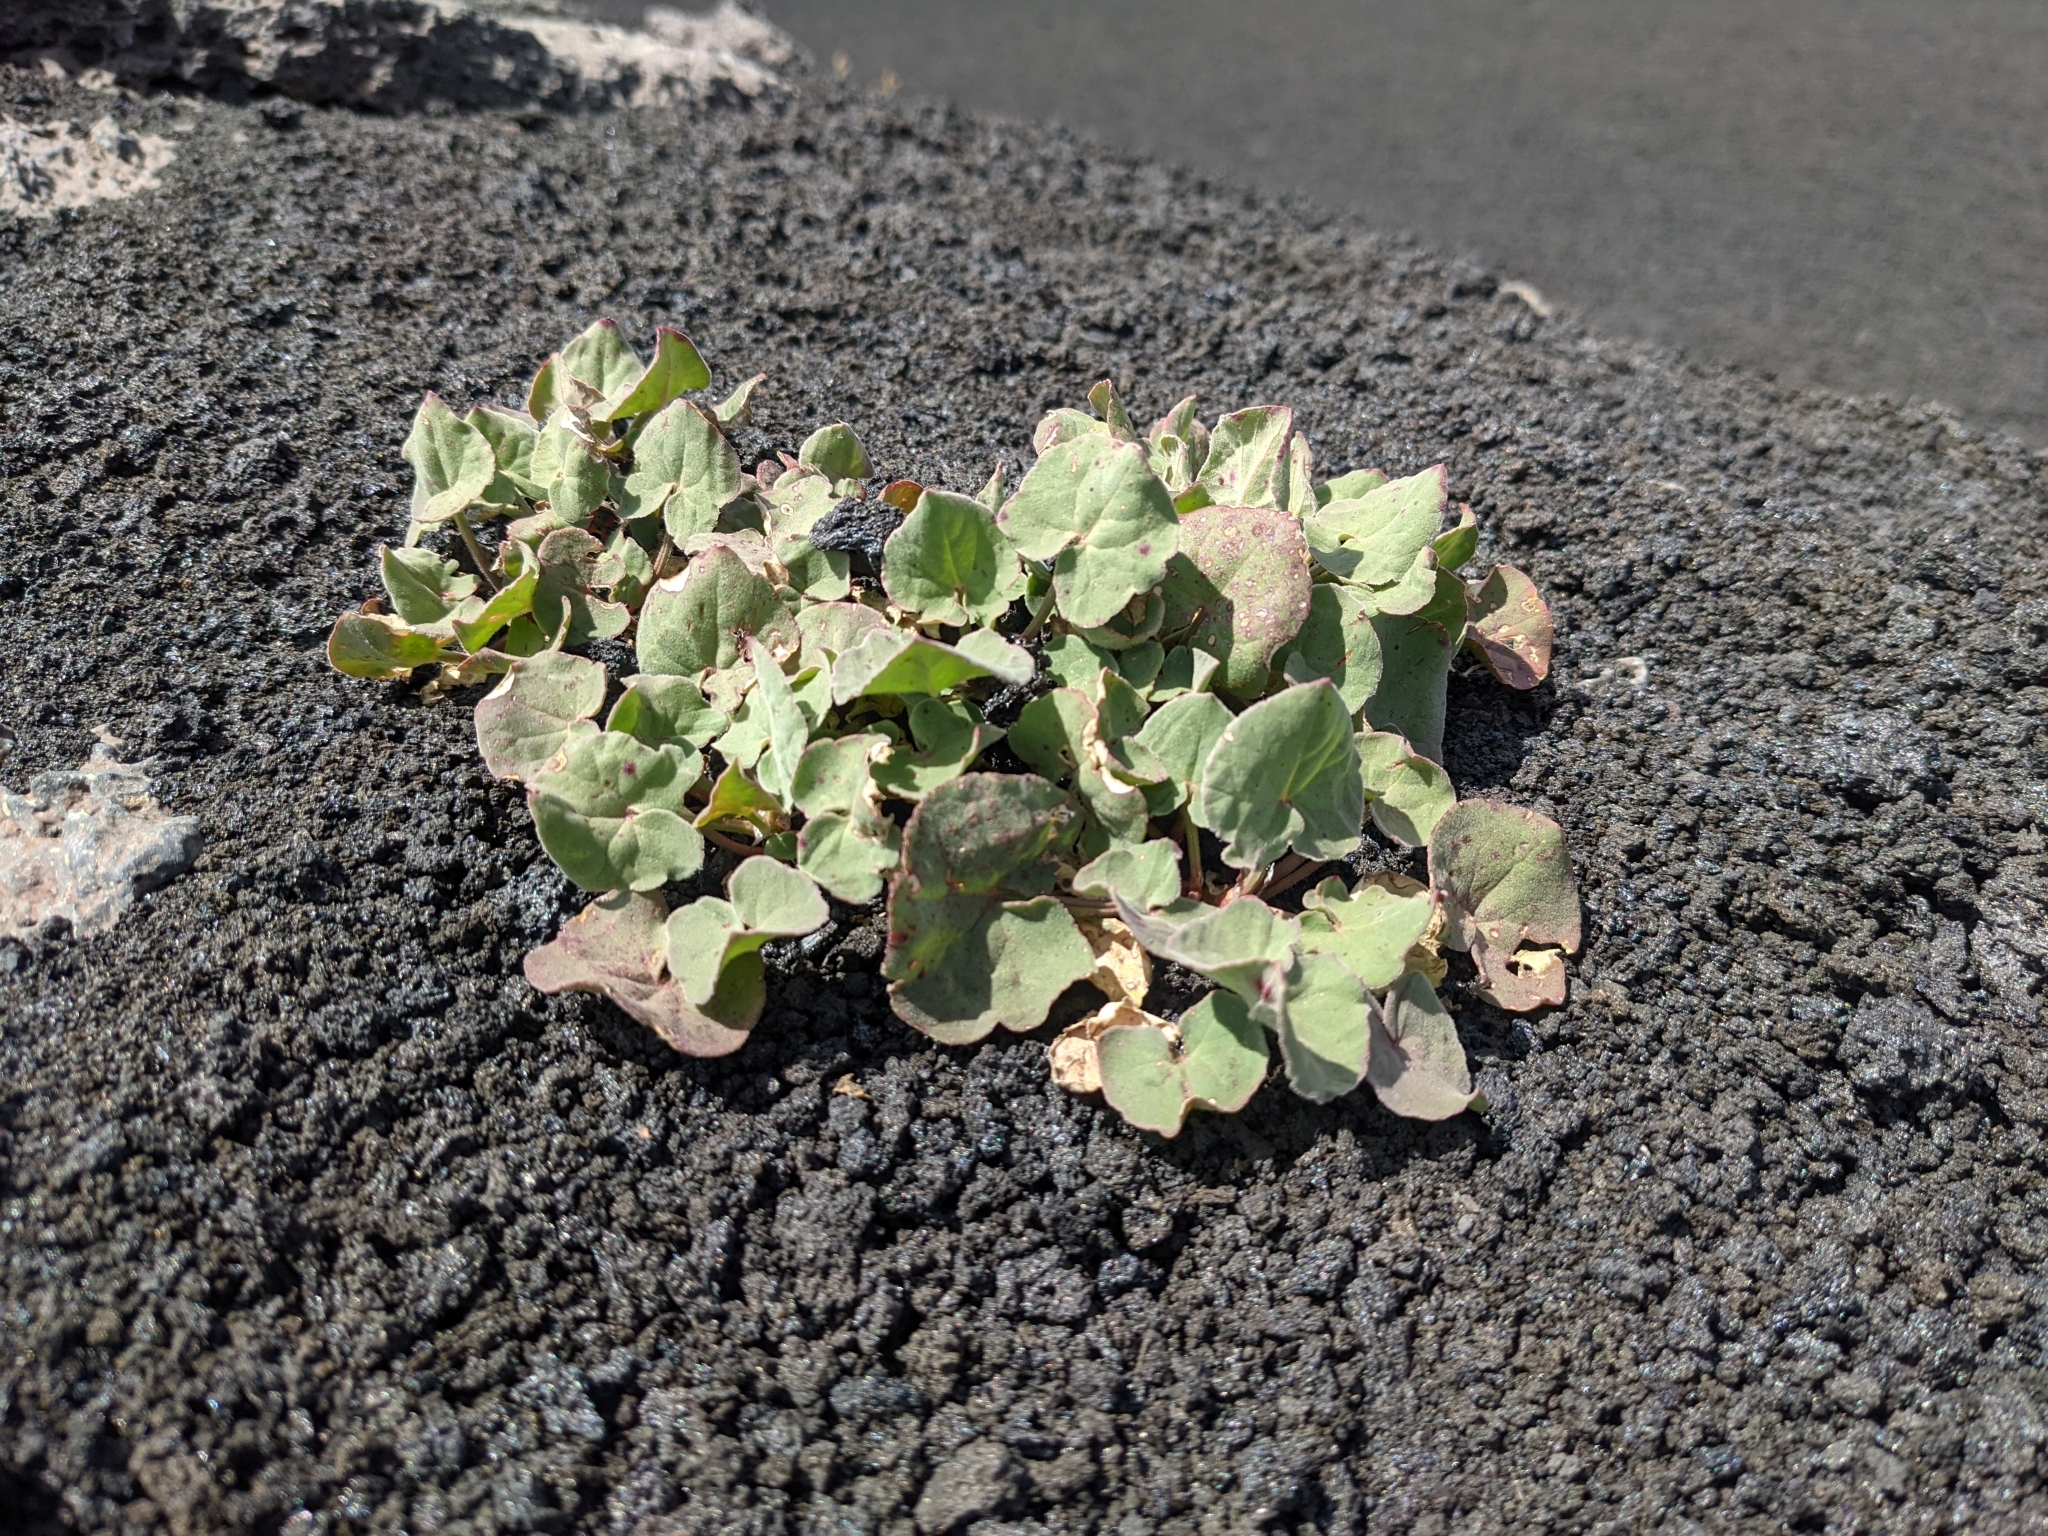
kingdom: Plantae
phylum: Tracheophyta
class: Magnoliopsida
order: Caryophyllales
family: Polygonaceae
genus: Rumex
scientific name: Rumex aetnensis
